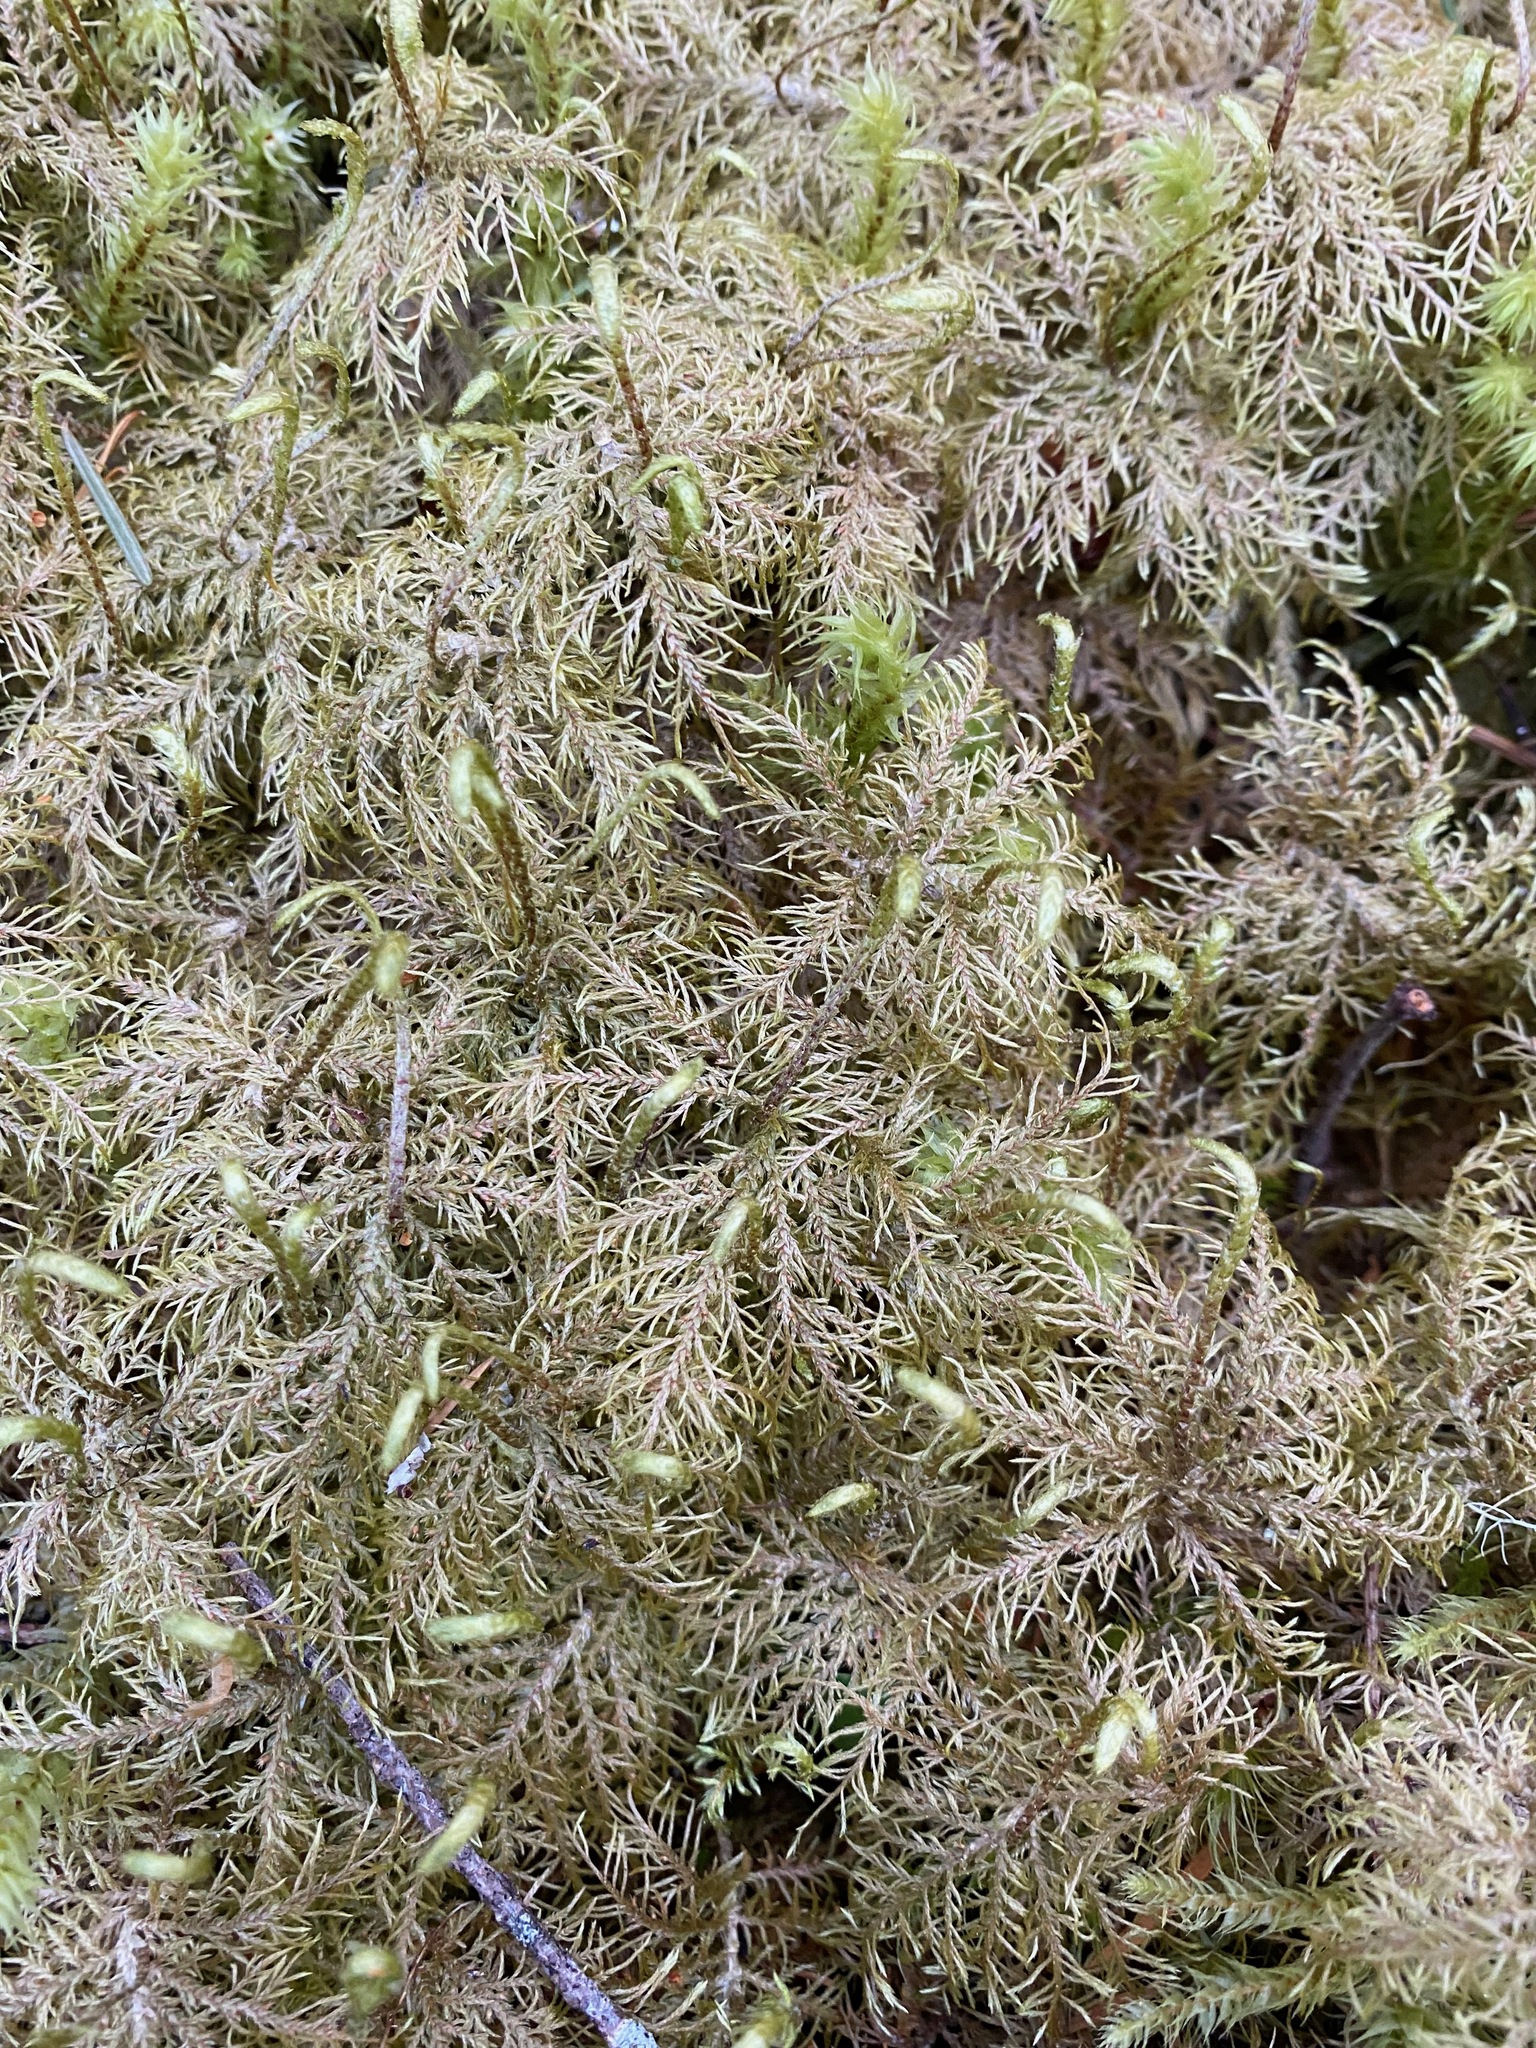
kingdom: Plantae
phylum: Bryophyta
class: Bryopsida
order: Hypnales
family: Hylocomiaceae
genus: Hylocomium
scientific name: Hylocomium splendens
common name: Stairstep moss
